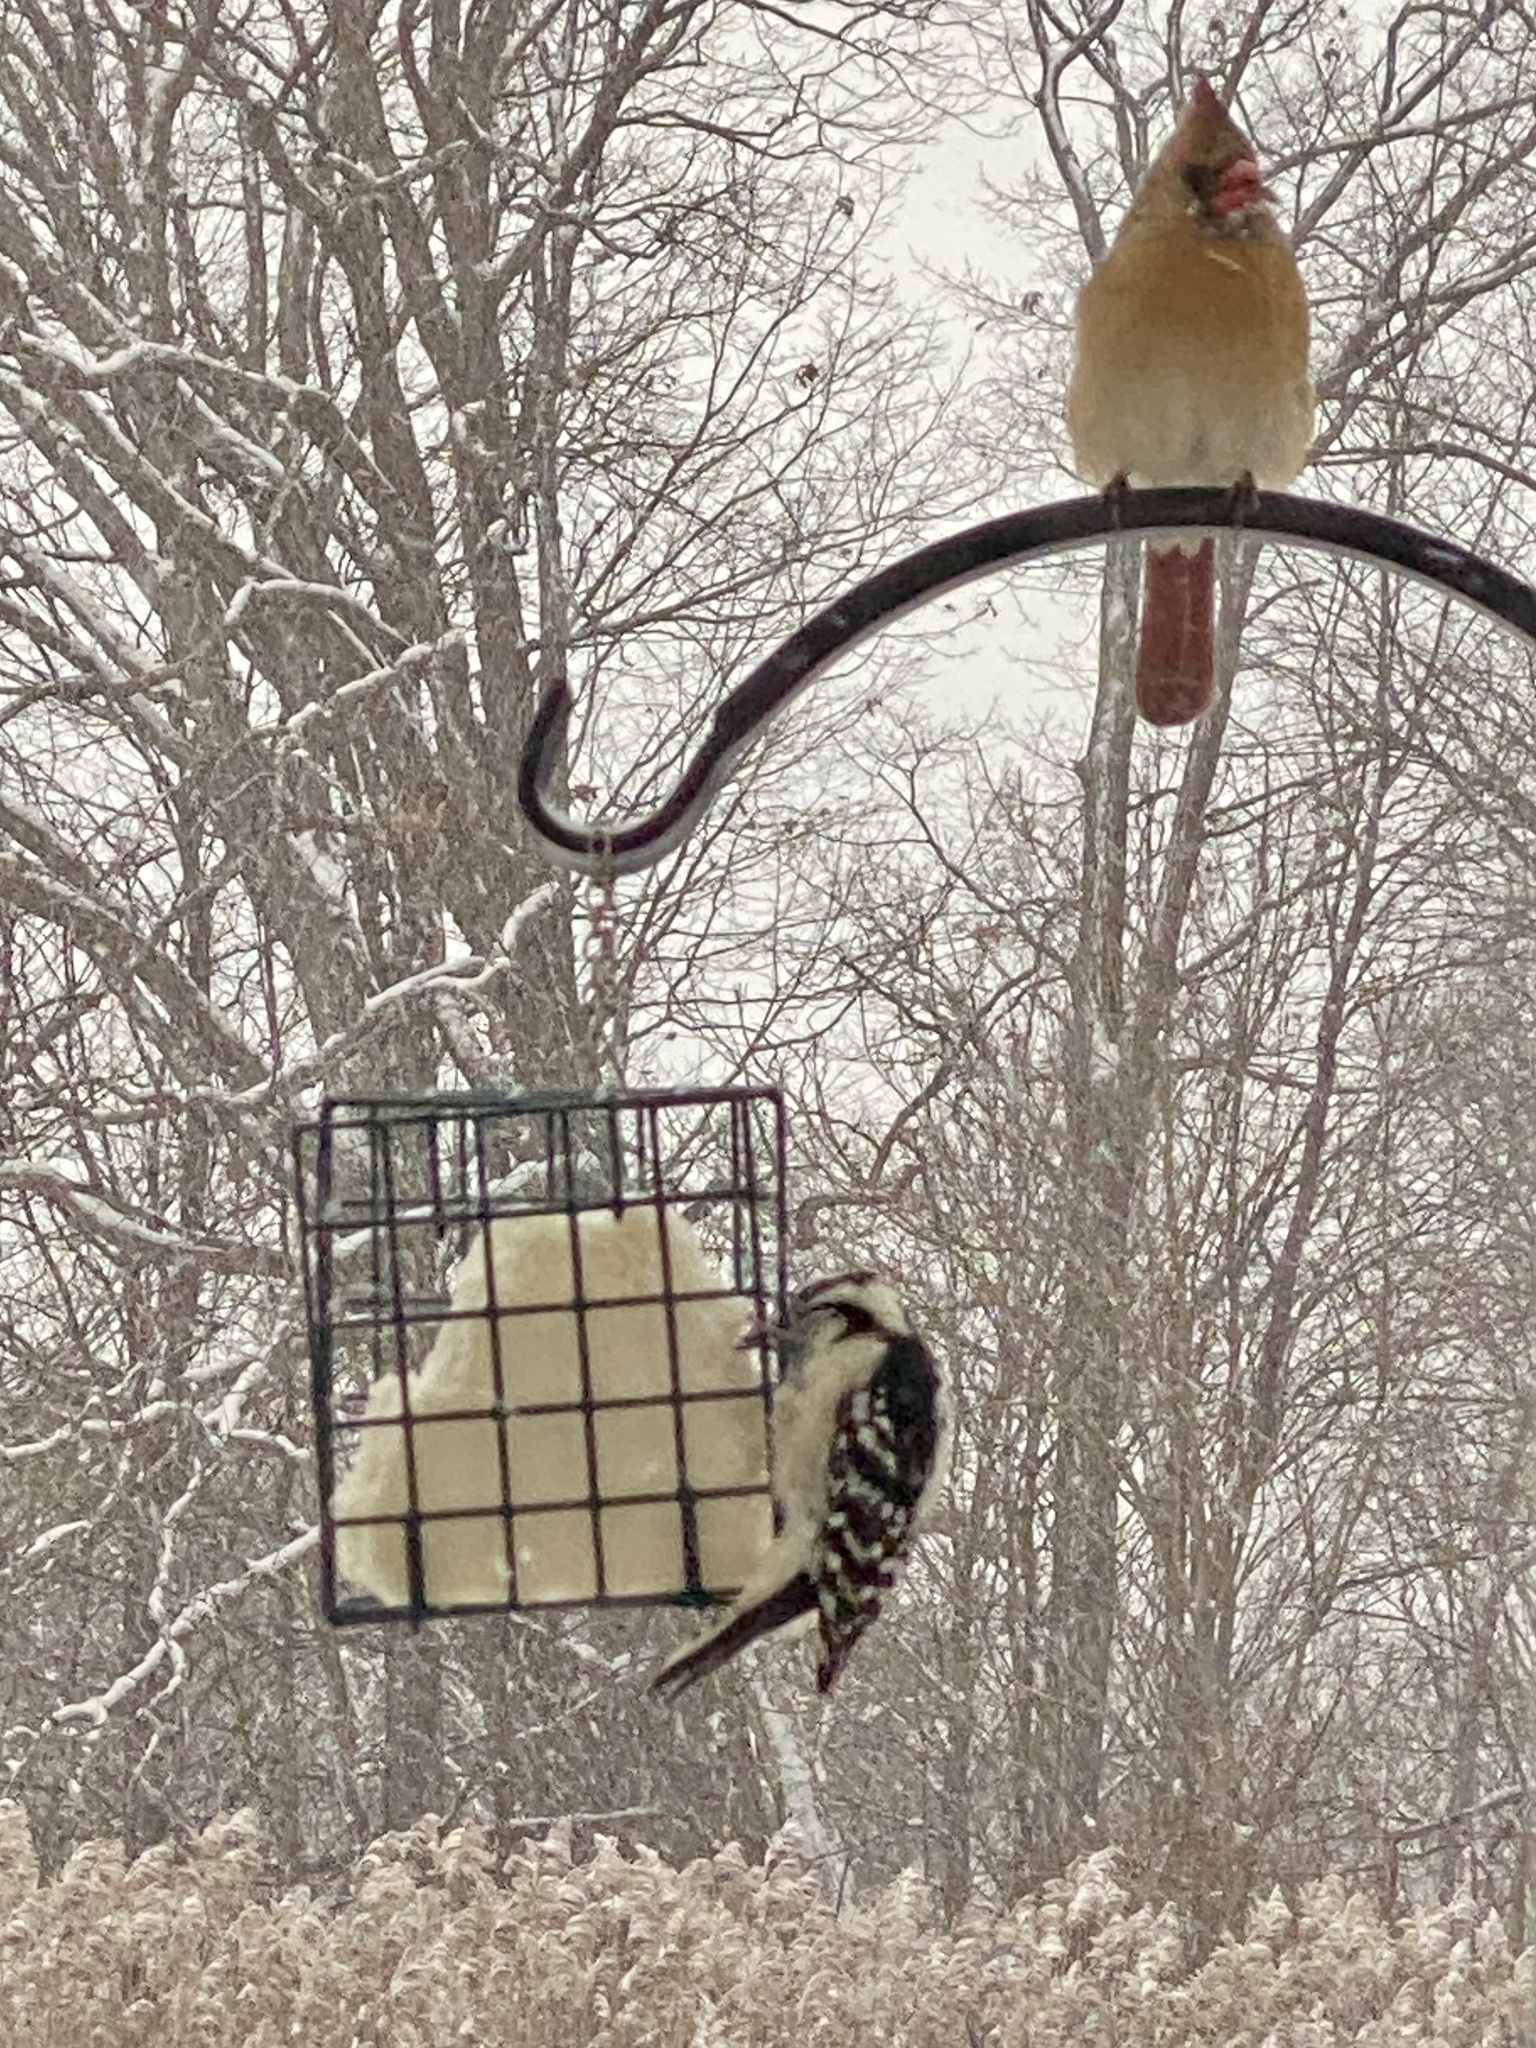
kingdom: Animalia
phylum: Chordata
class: Aves
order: Piciformes
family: Picidae
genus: Dryobates
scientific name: Dryobates pubescens
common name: Downy woodpecker
